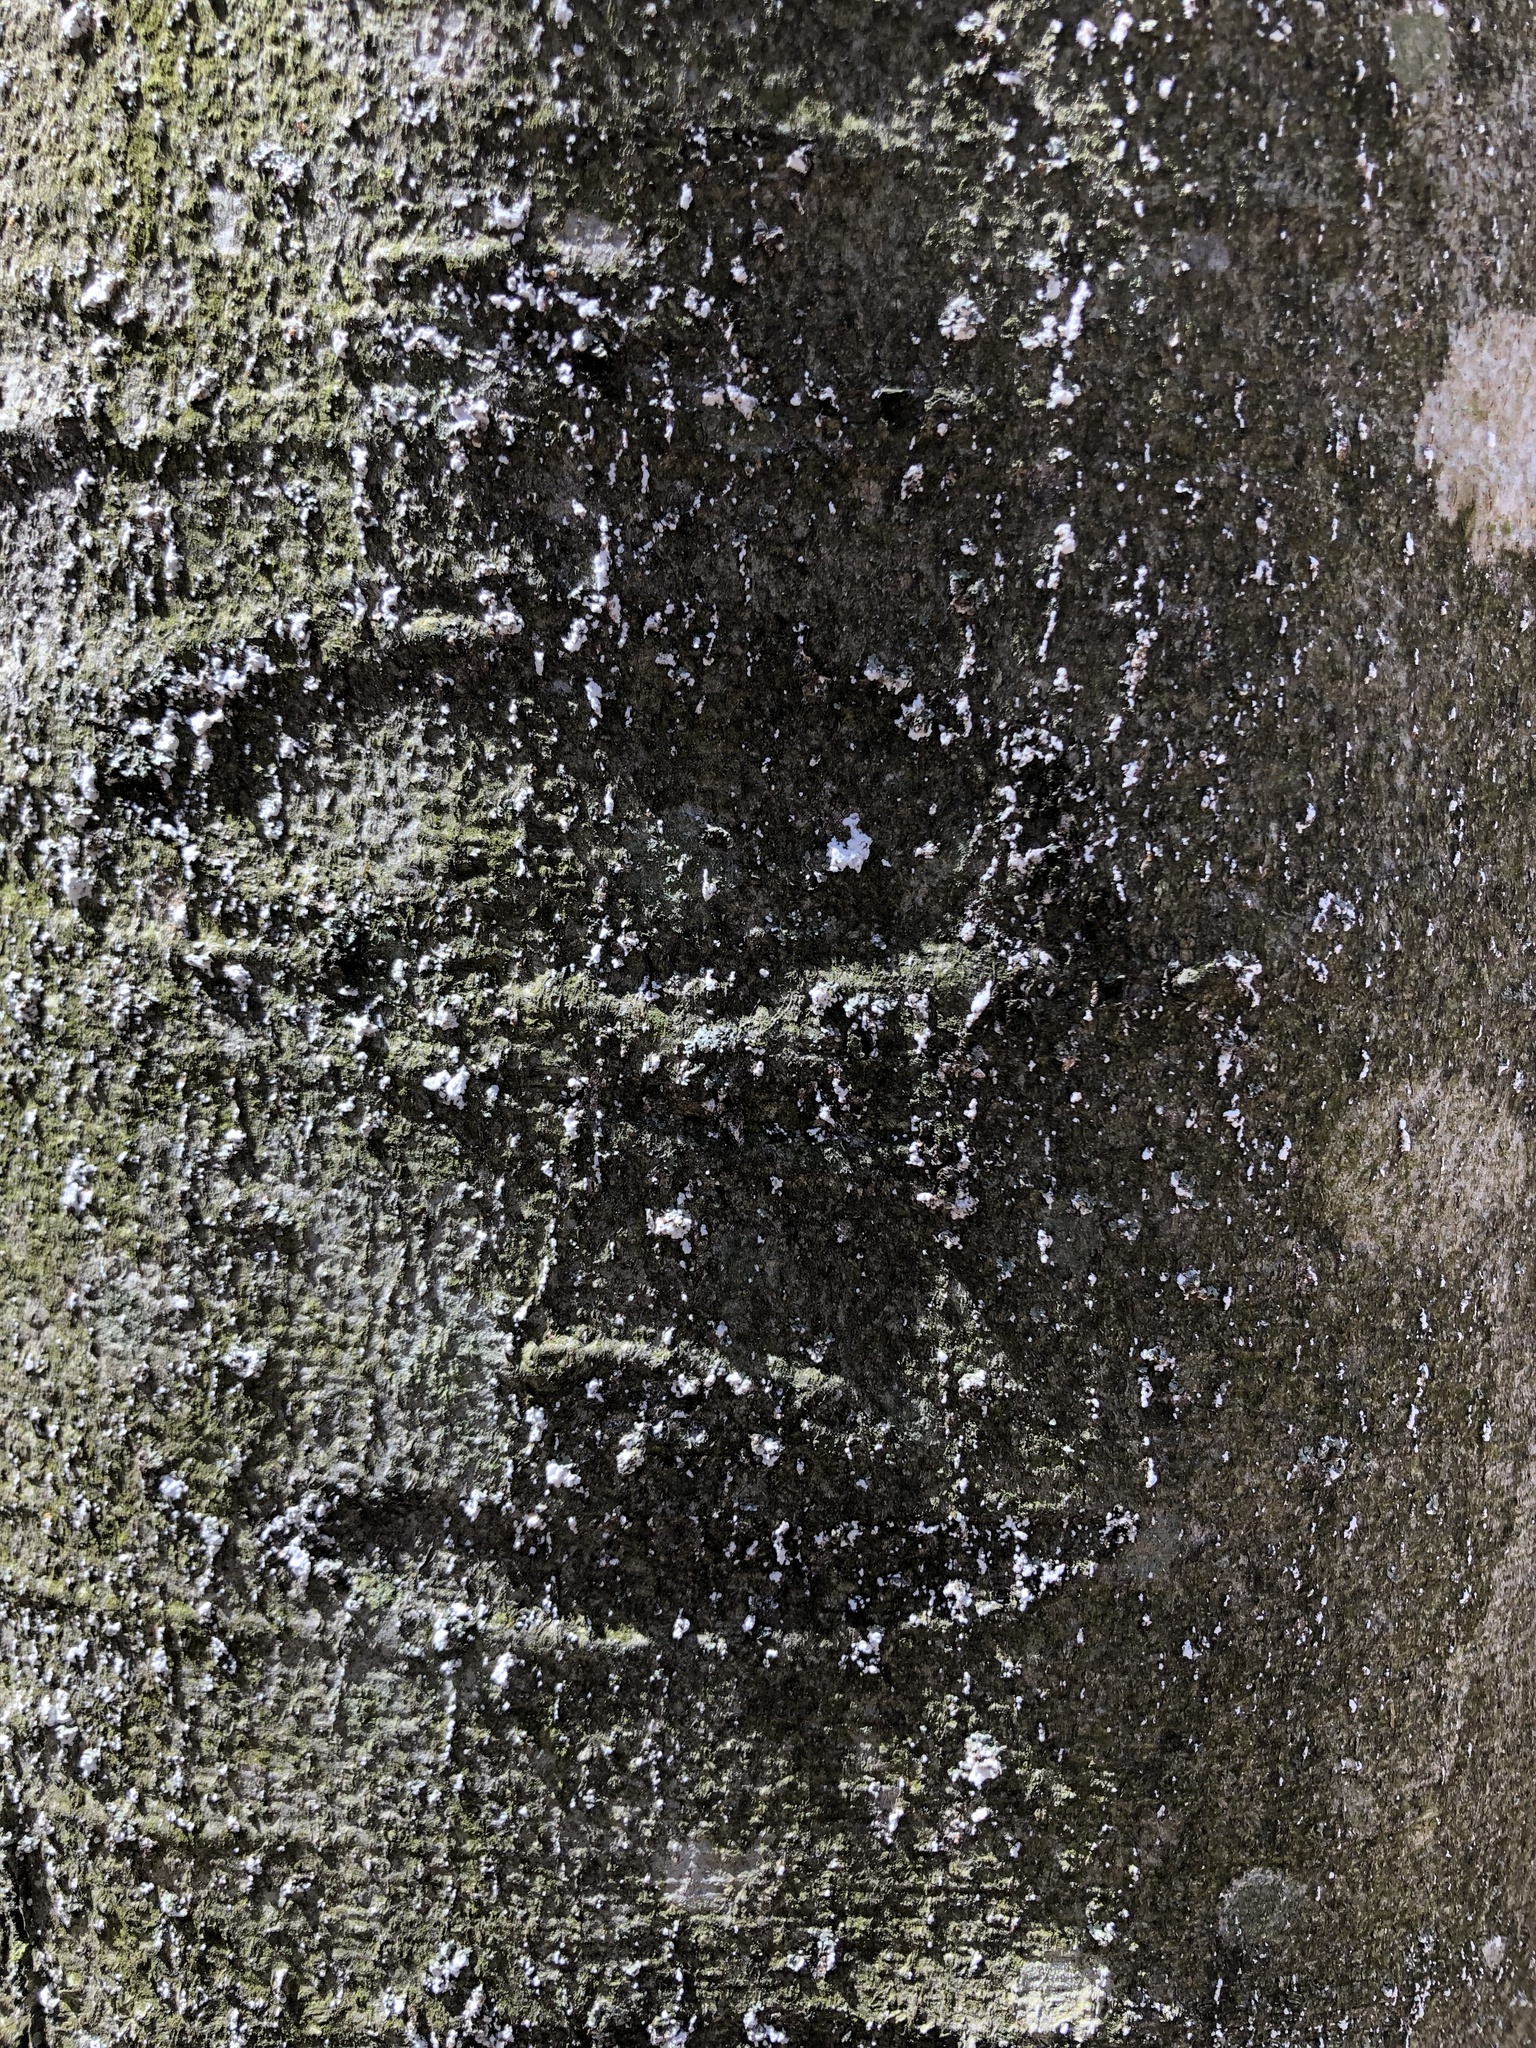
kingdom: Animalia
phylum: Arthropoda
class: Insecta
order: Hemiptera
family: Eriococcidae
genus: Cryptococcus
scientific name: Cryptococcus fagisuga
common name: Beech scale
